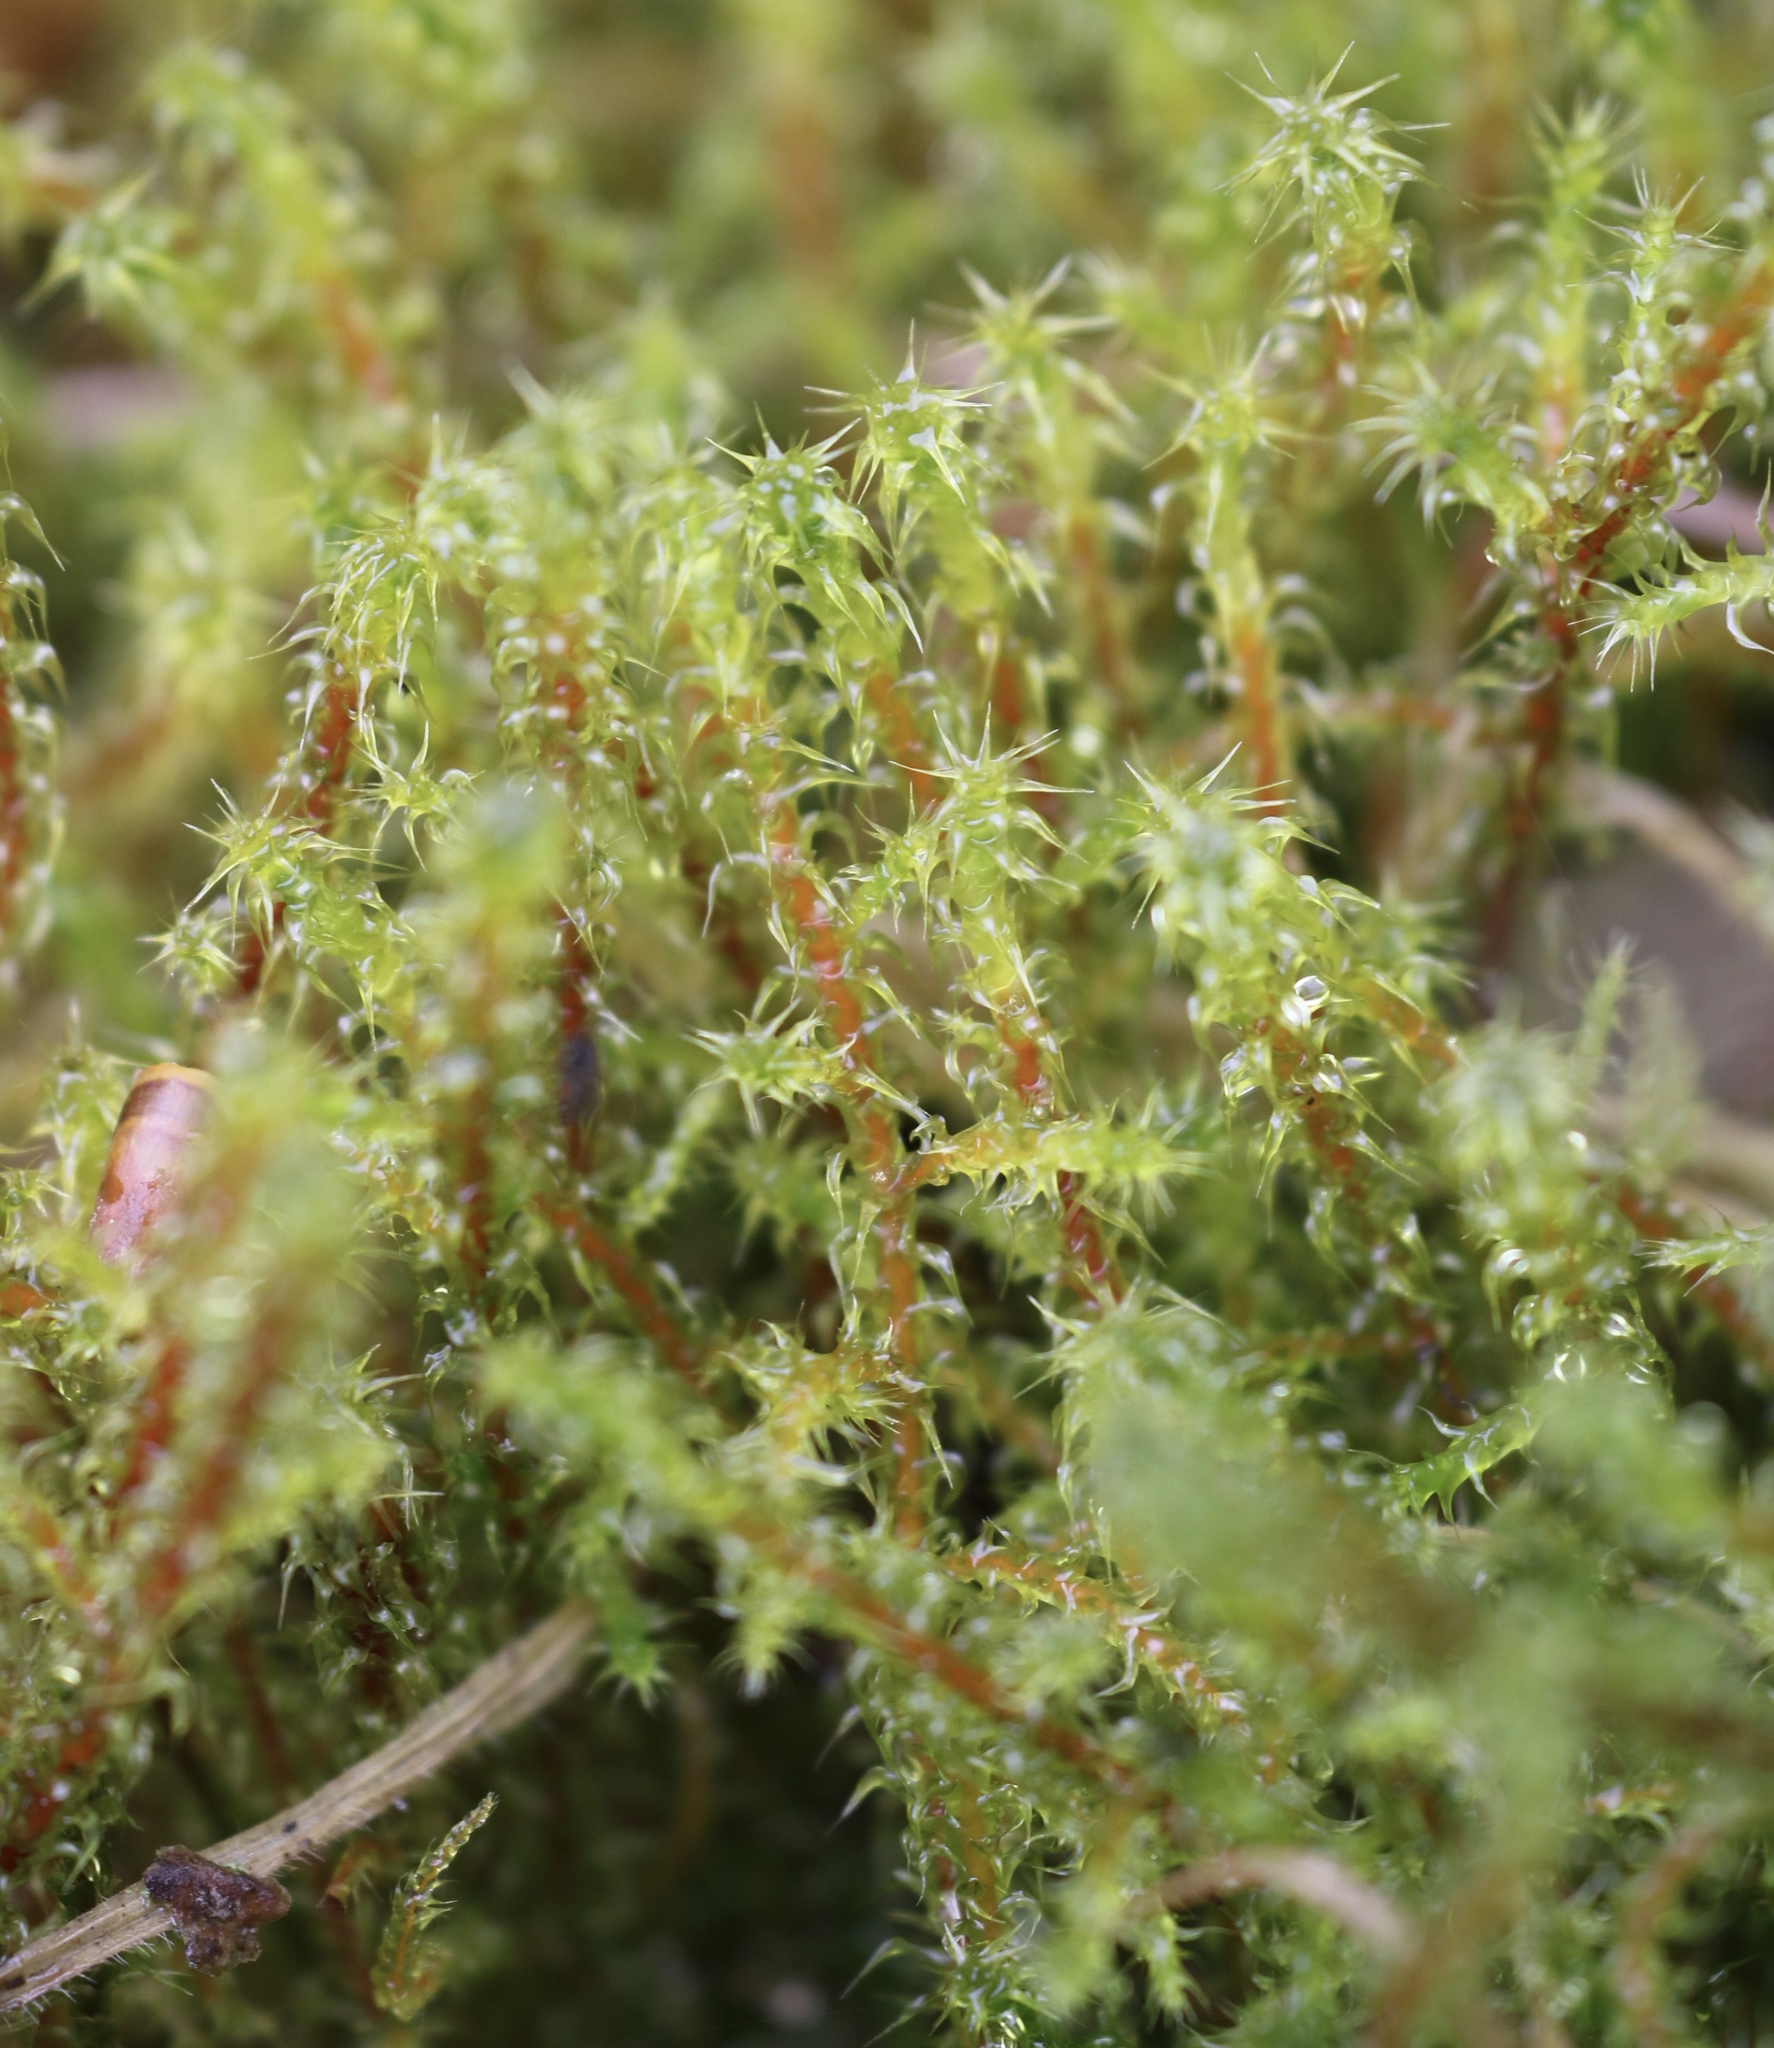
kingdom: Plantae
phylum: Bryophyta
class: Bryopsida
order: Hypnales
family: Hylocomiaceae
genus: Rhytidiadelphus
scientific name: Rhytidiadelphus squarrosus
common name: Springy turf-moss
